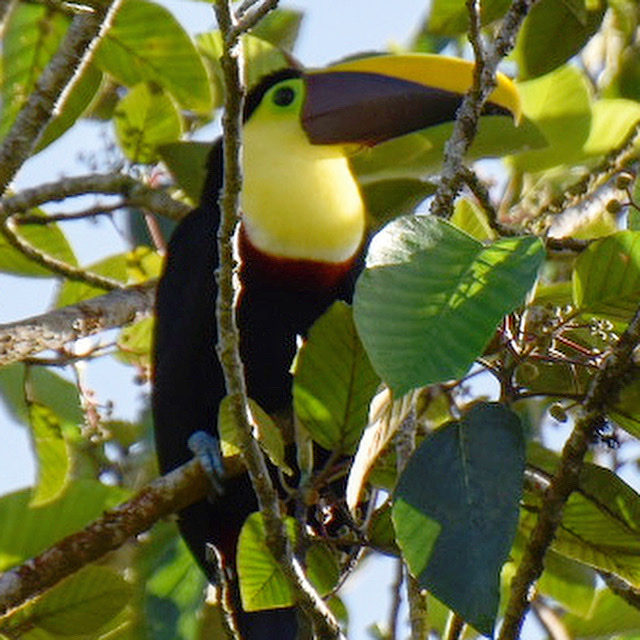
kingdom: Animalia
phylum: Chordata
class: Aves
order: Piciformes
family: Ramphastidae
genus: Ramphastos
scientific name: Ramphastos ambiguus
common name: Yellow-throated toucan
